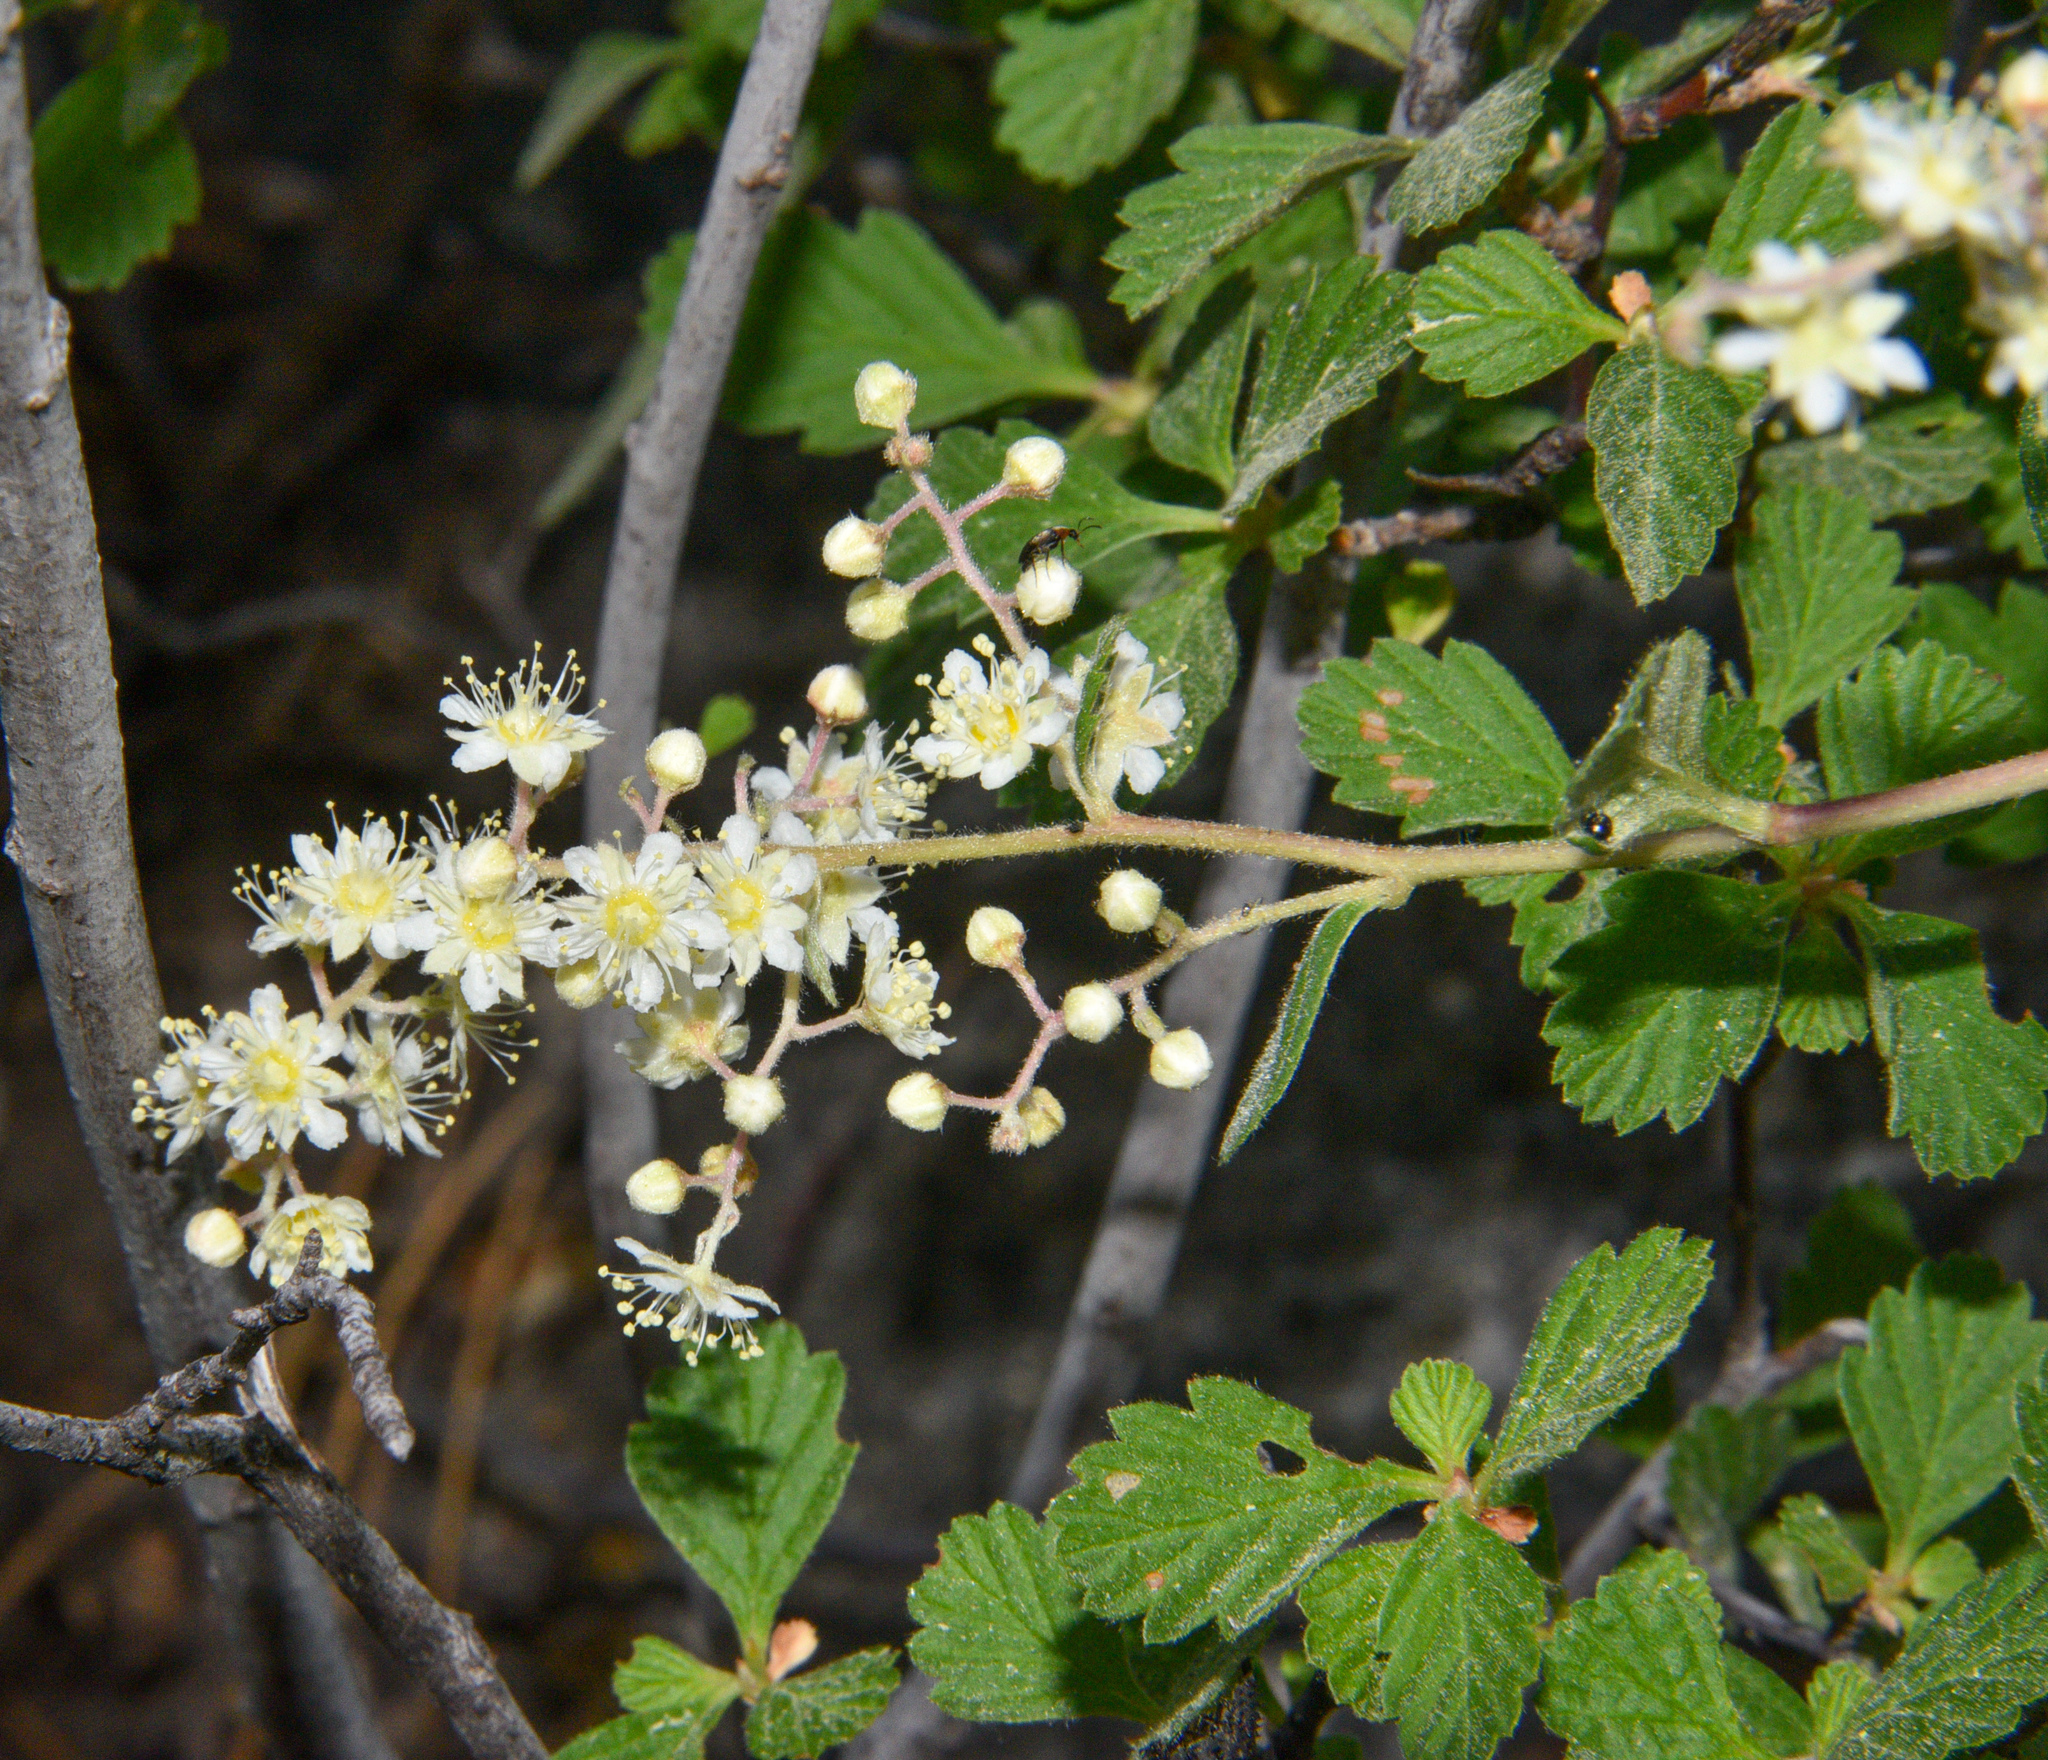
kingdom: Plantae
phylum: Tracheophyta
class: Magnoliopsida
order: Rosales
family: Rosaceae
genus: Holodiscus
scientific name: Holodiscus discolor
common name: Oceanspray
